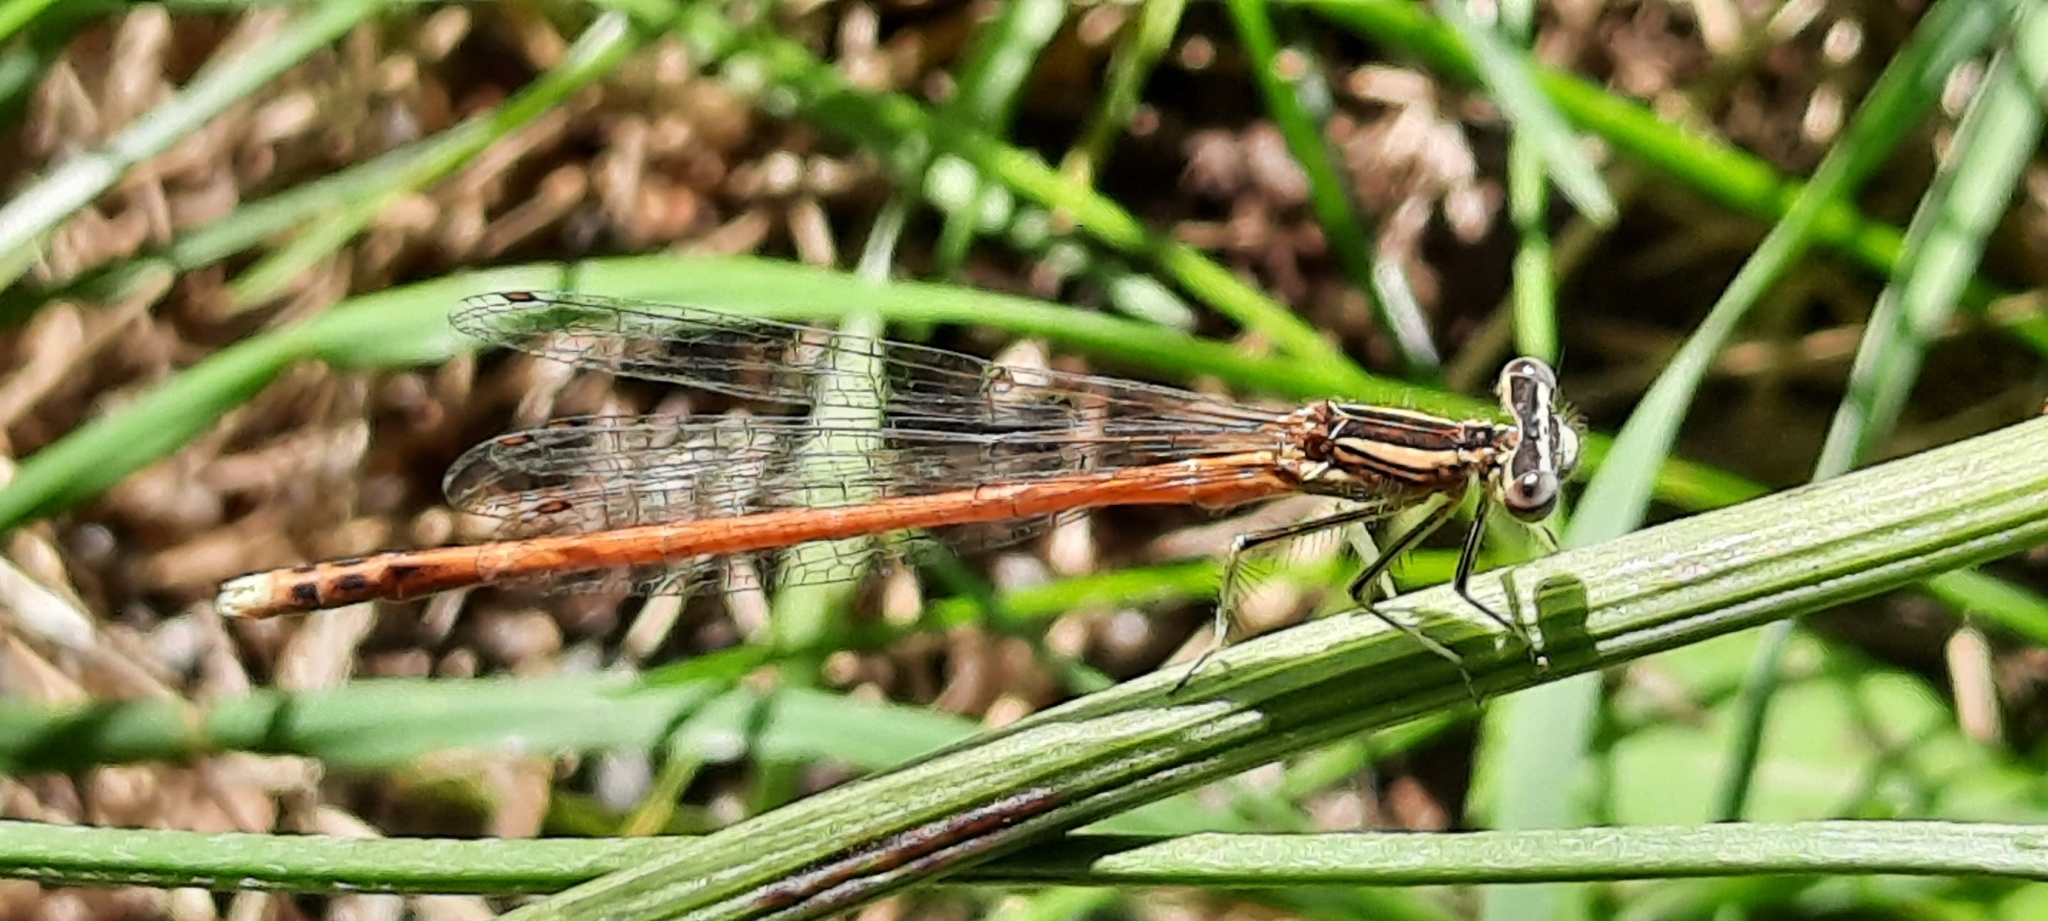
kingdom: Animalia
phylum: Arthropoda
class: Insecta
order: Odonata
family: Platycnemididae
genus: Platycnemis
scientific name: Platycnemis acutipennis
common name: Orange featherleg
